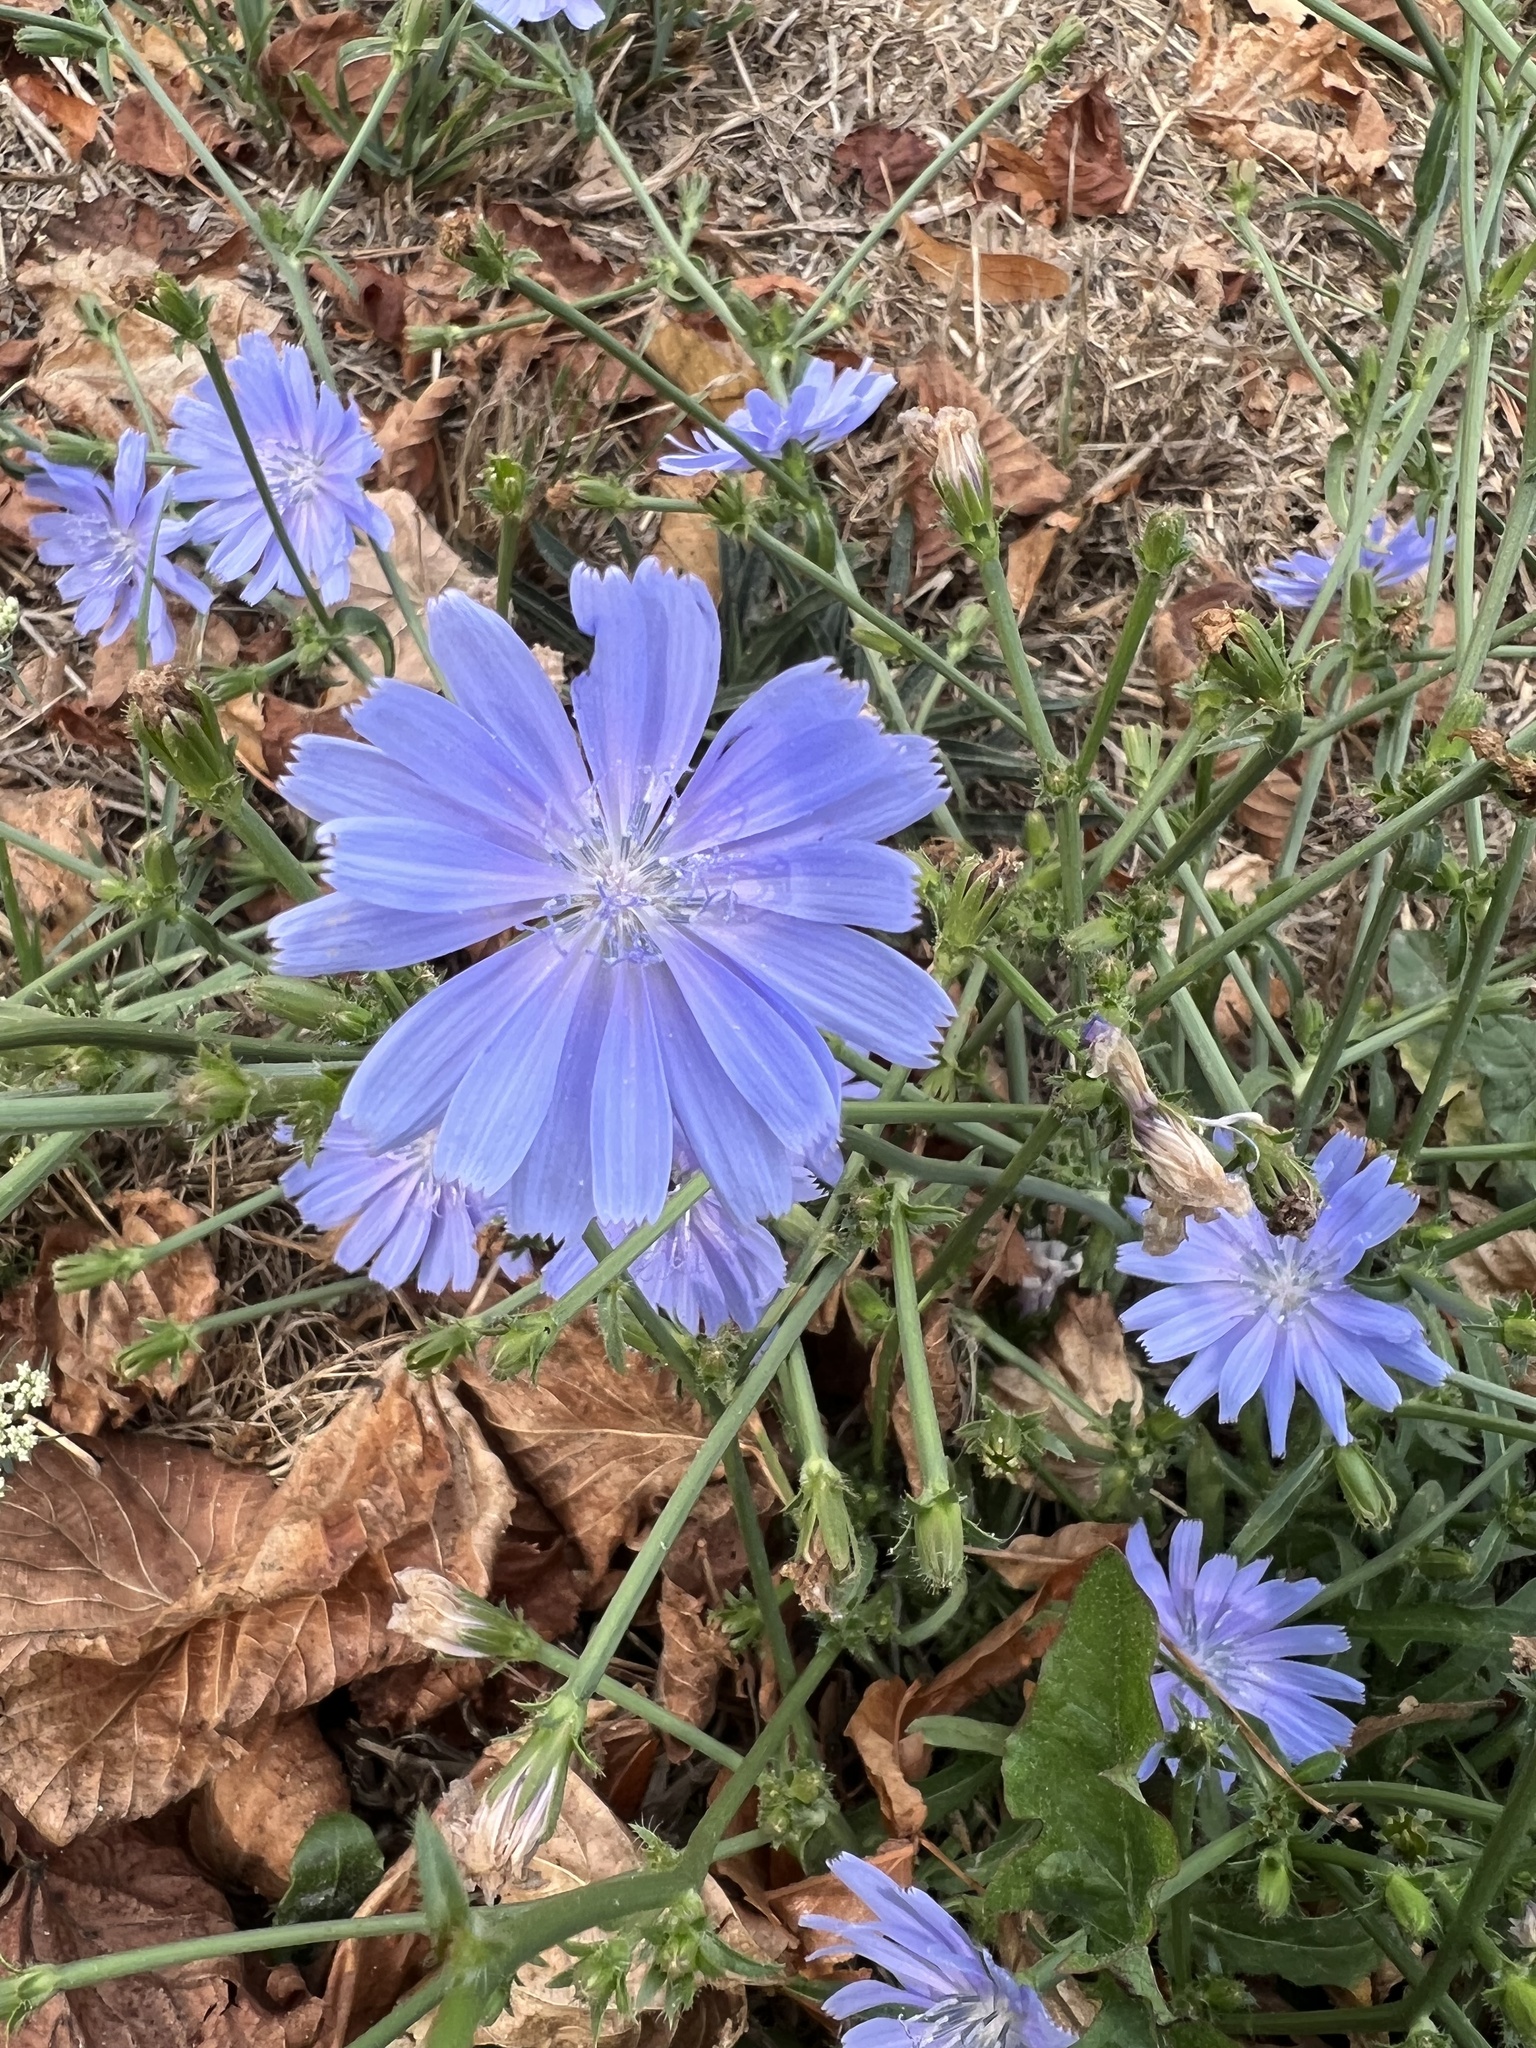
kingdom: Plantae
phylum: Tracheophyta
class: Magnoliopsida
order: Asterales
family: Asteraceae
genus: Cichorium
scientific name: Cichorium intybus
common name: Chicory
